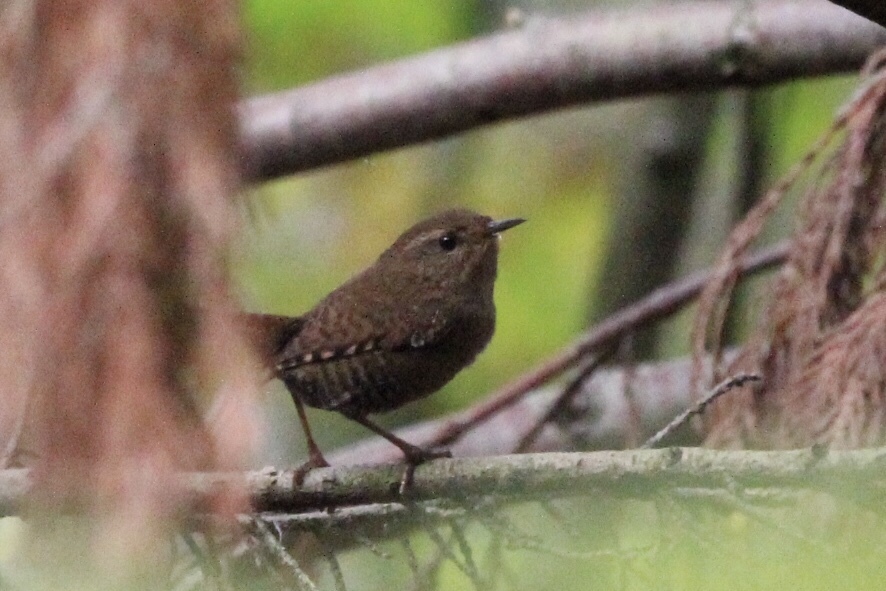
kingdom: Animalia
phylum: Chordata
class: Aves
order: Passeriformes
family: Troglodytidae
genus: Troglodytes
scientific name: Troglodytes pacificus
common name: Pacific wren
